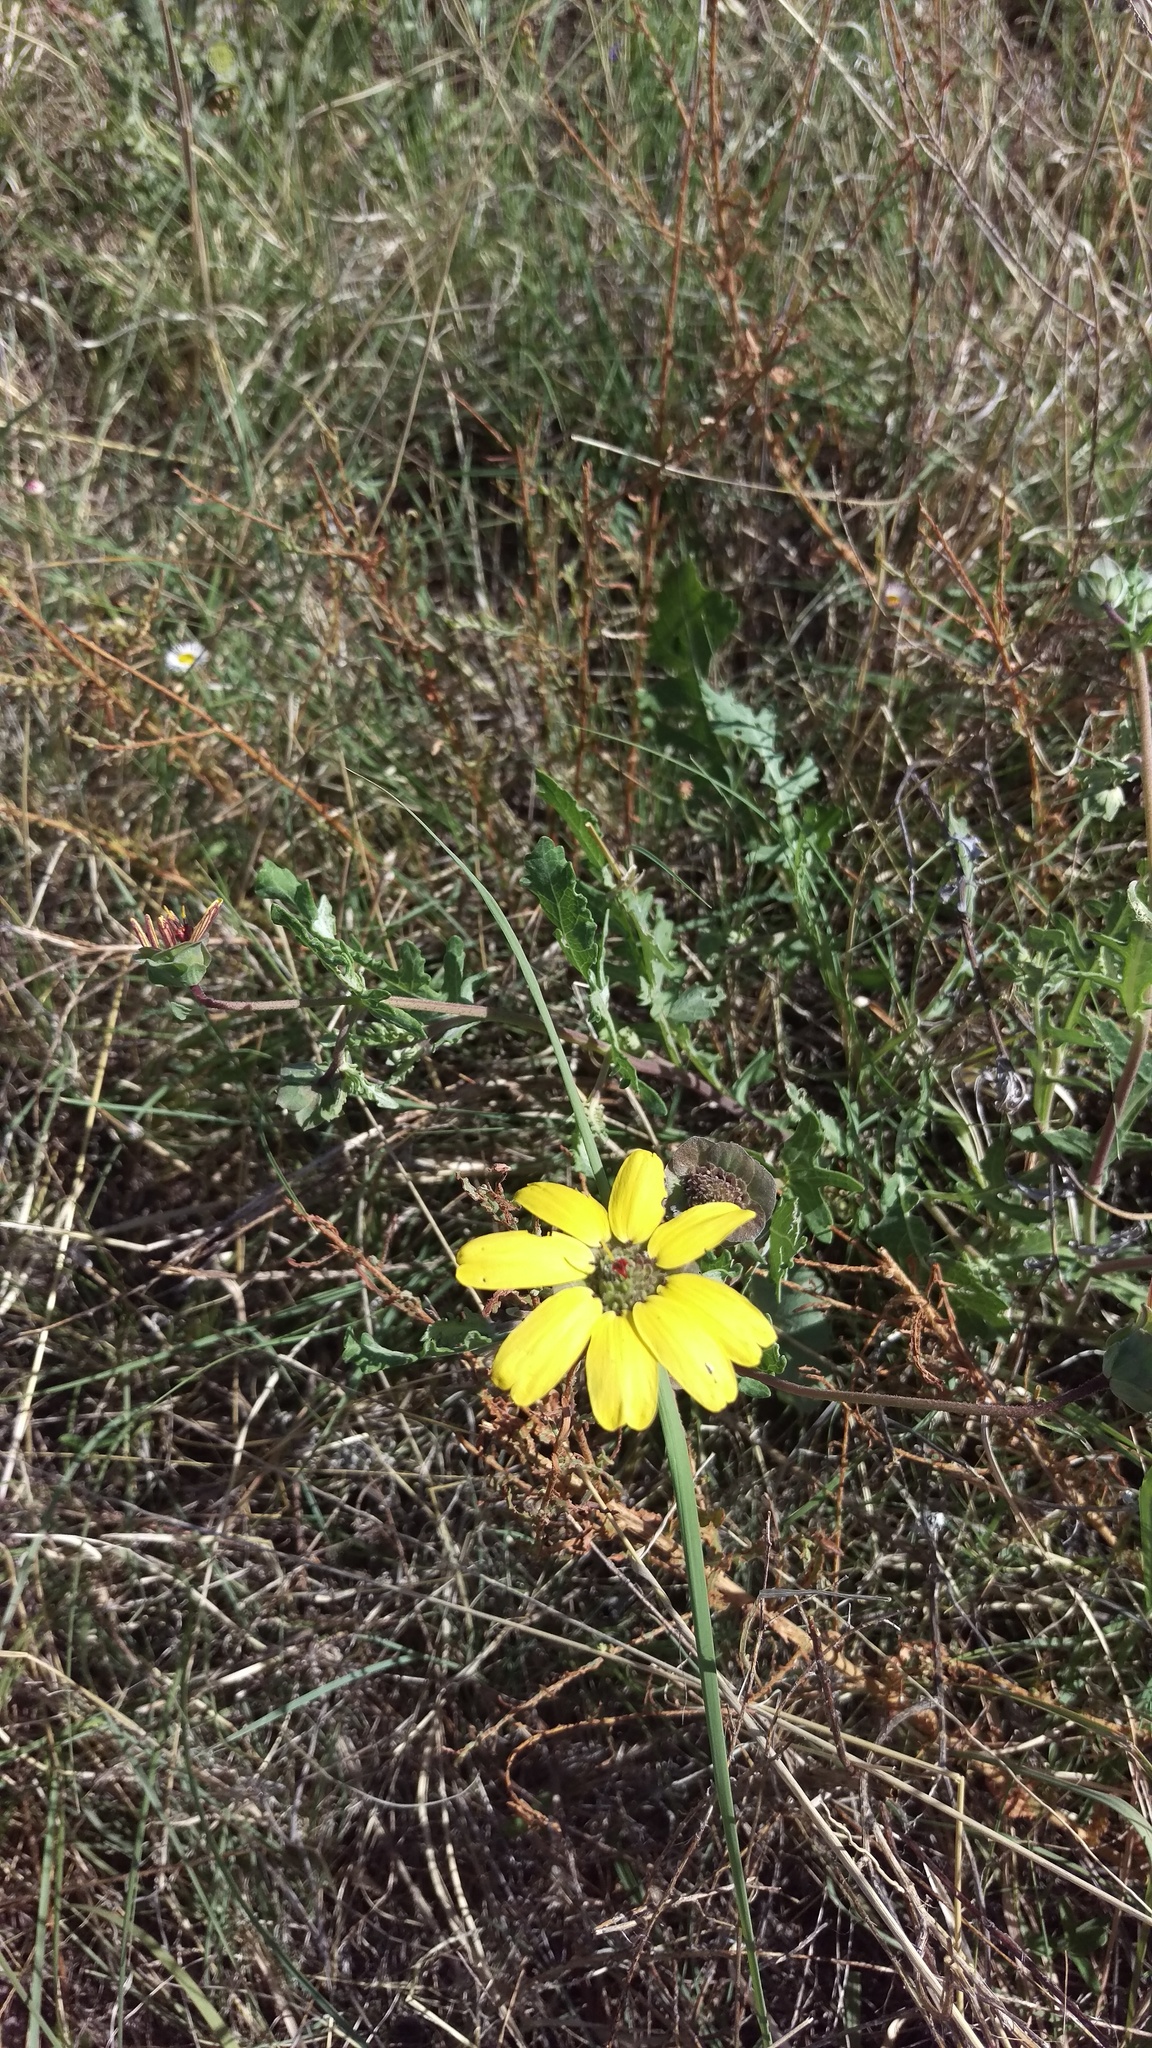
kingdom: Plantae
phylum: Tracheophyta
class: Magnoliopsida
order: Asterales
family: Asteraceae
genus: Berlandiera
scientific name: Berlandiera lyrata
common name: Chocolate-flower
